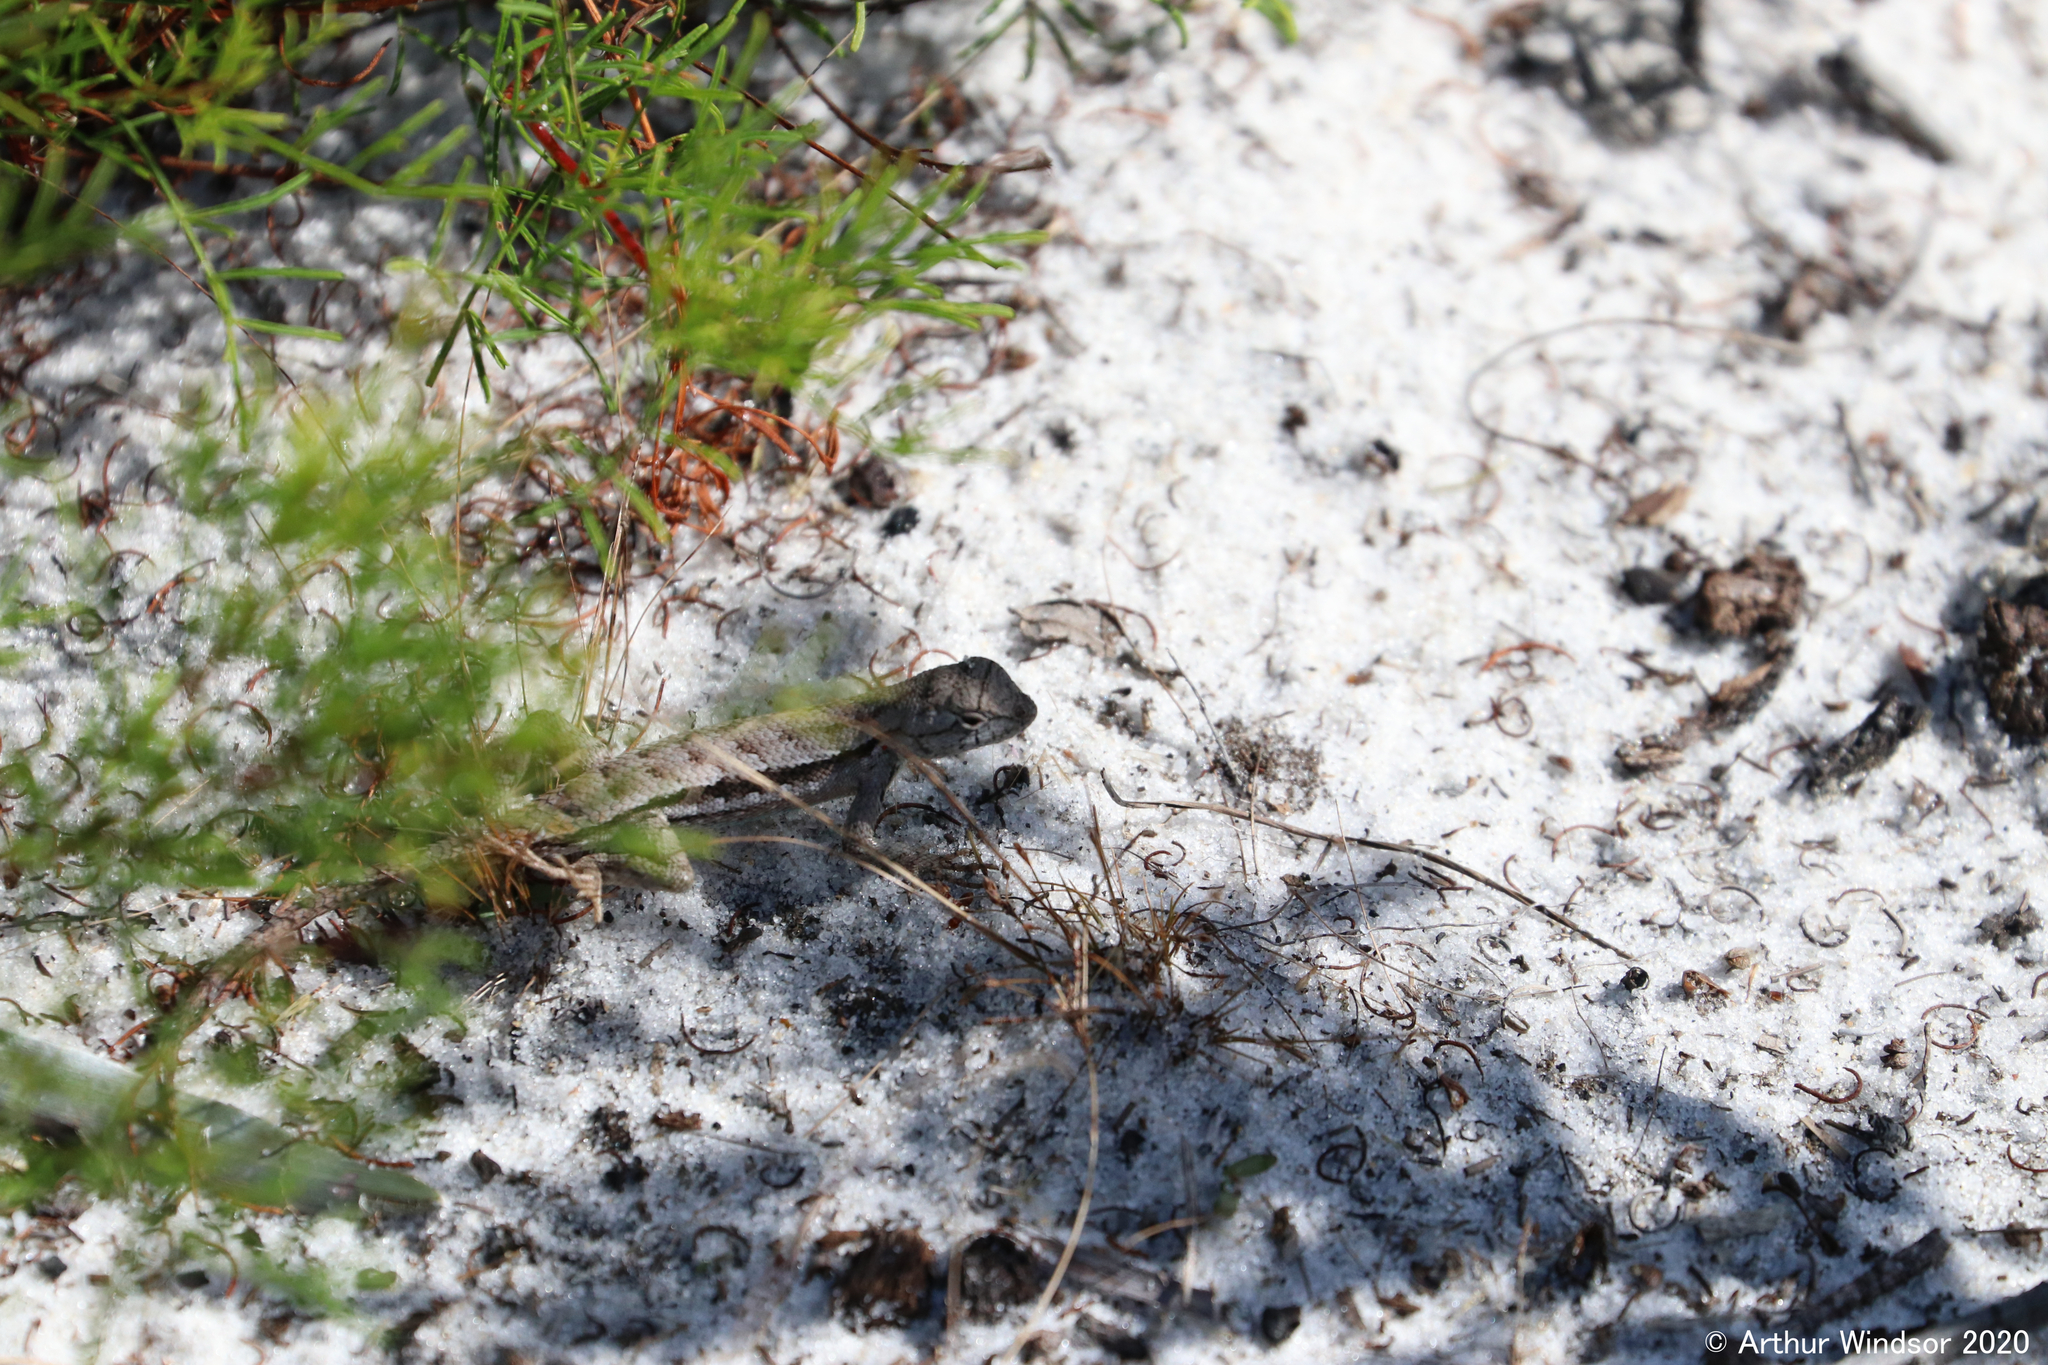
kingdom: Animalia
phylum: Chordata
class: Squamata
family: Phrynosomatidae
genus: Sceloporus
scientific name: Sceloporus woodi
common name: Florida scrub lizard
